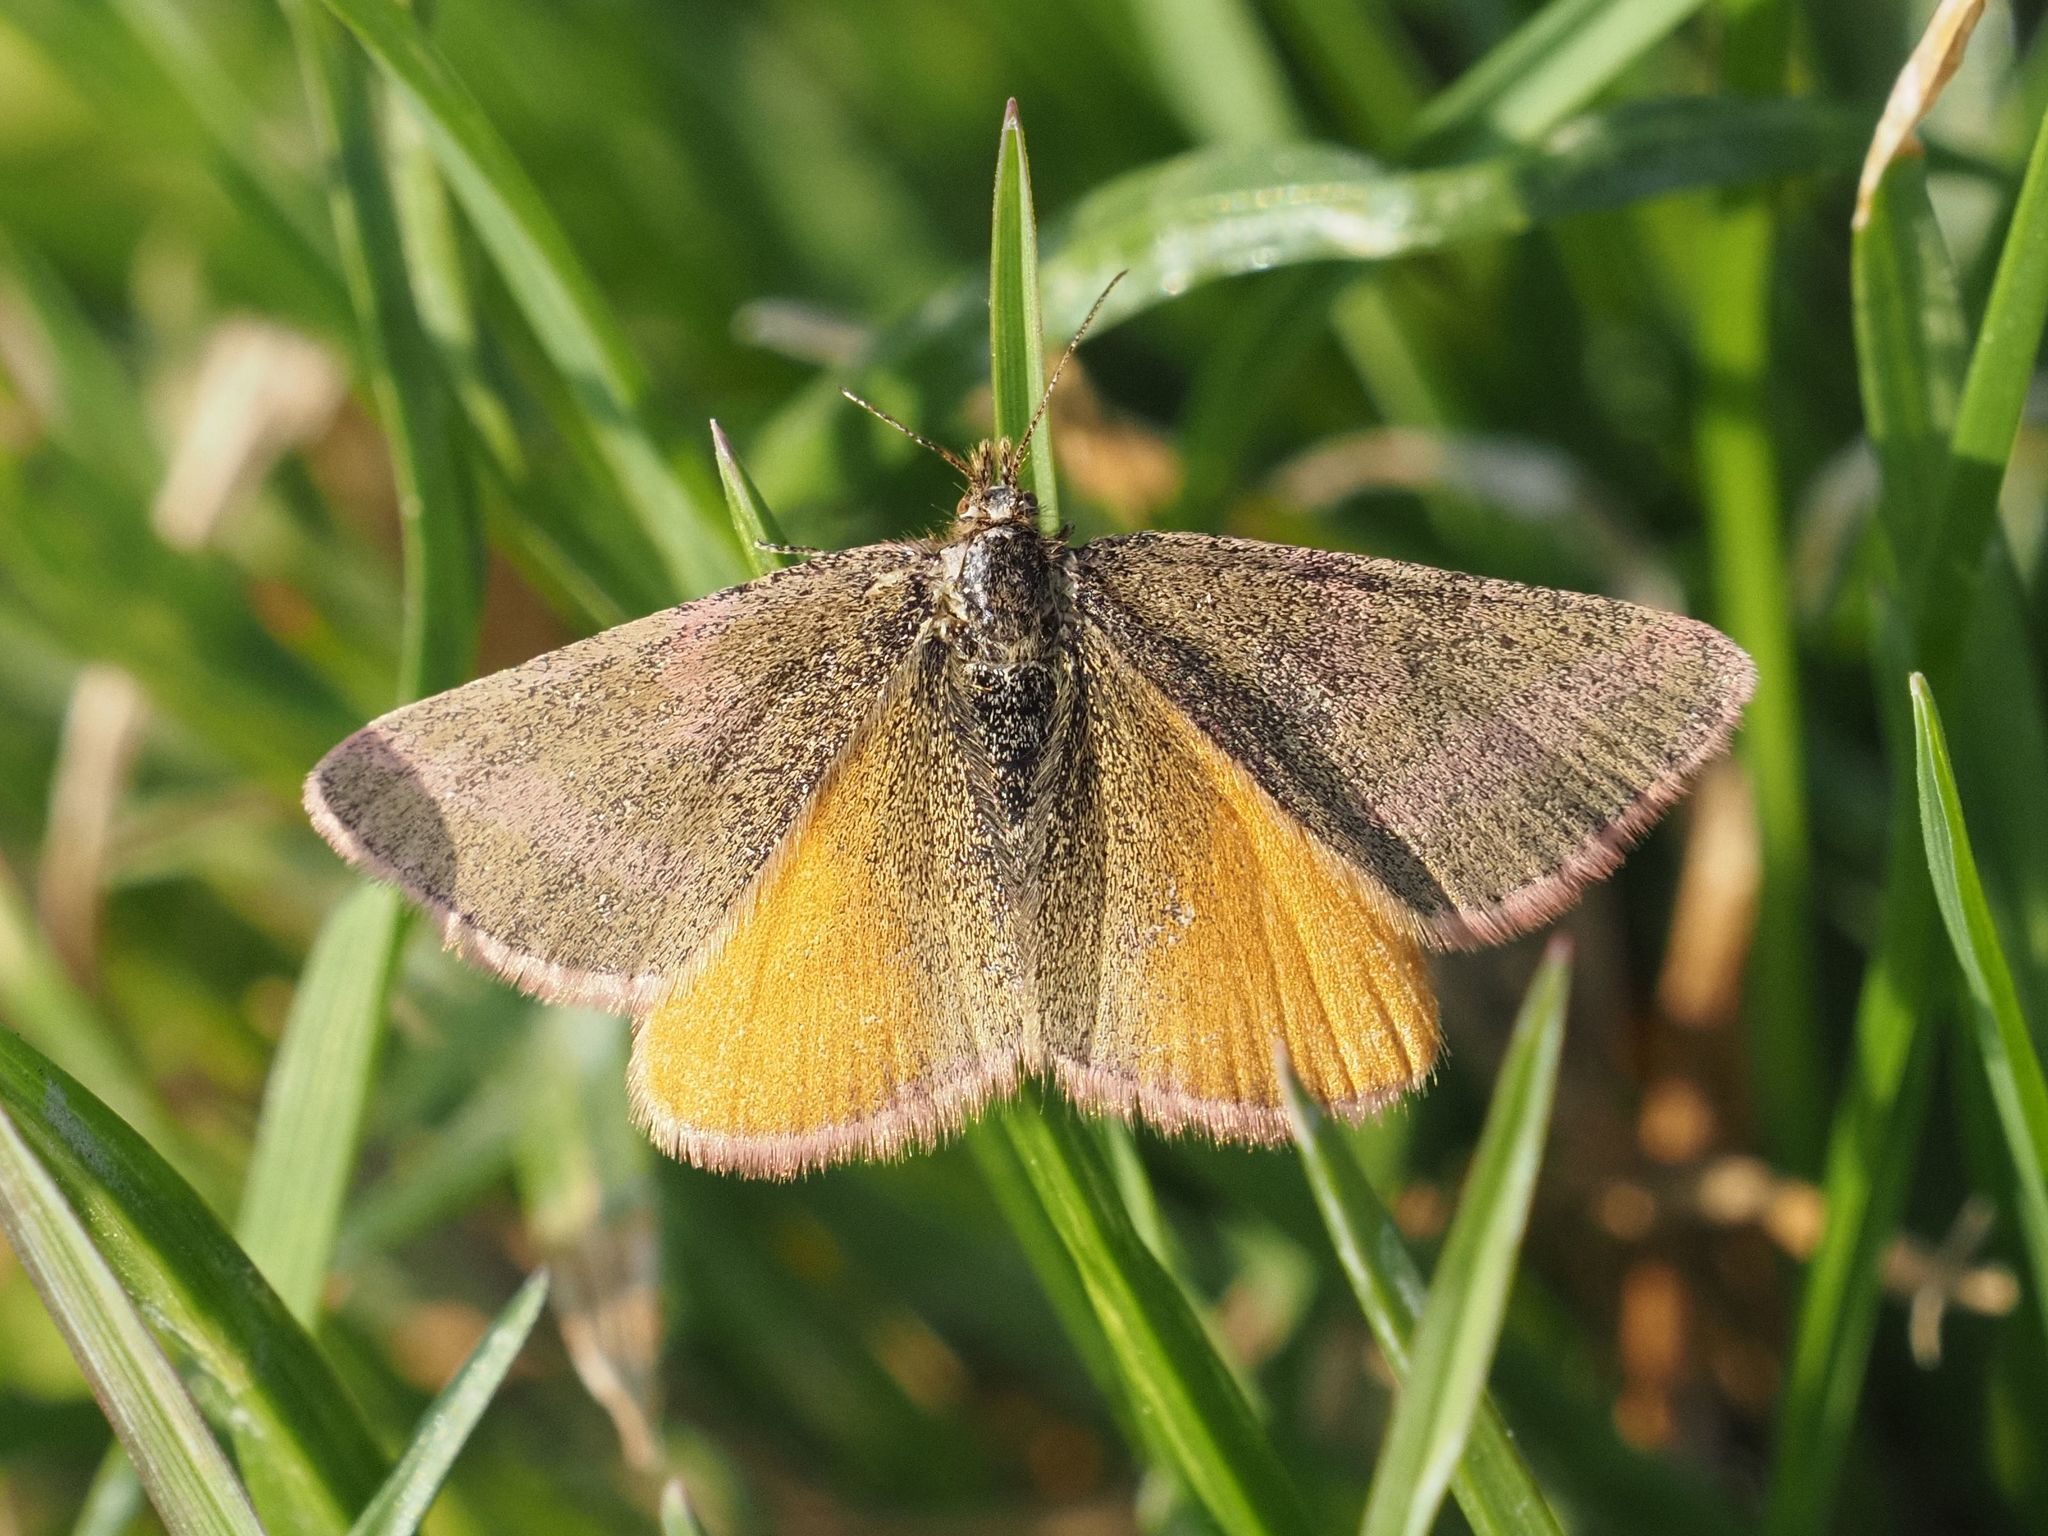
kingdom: Animalia
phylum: Arthropoda
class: Insecta
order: Lepidoptera
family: Geometridae
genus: Lythria
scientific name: Lythria purpuraria
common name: Purple-barred yellow
